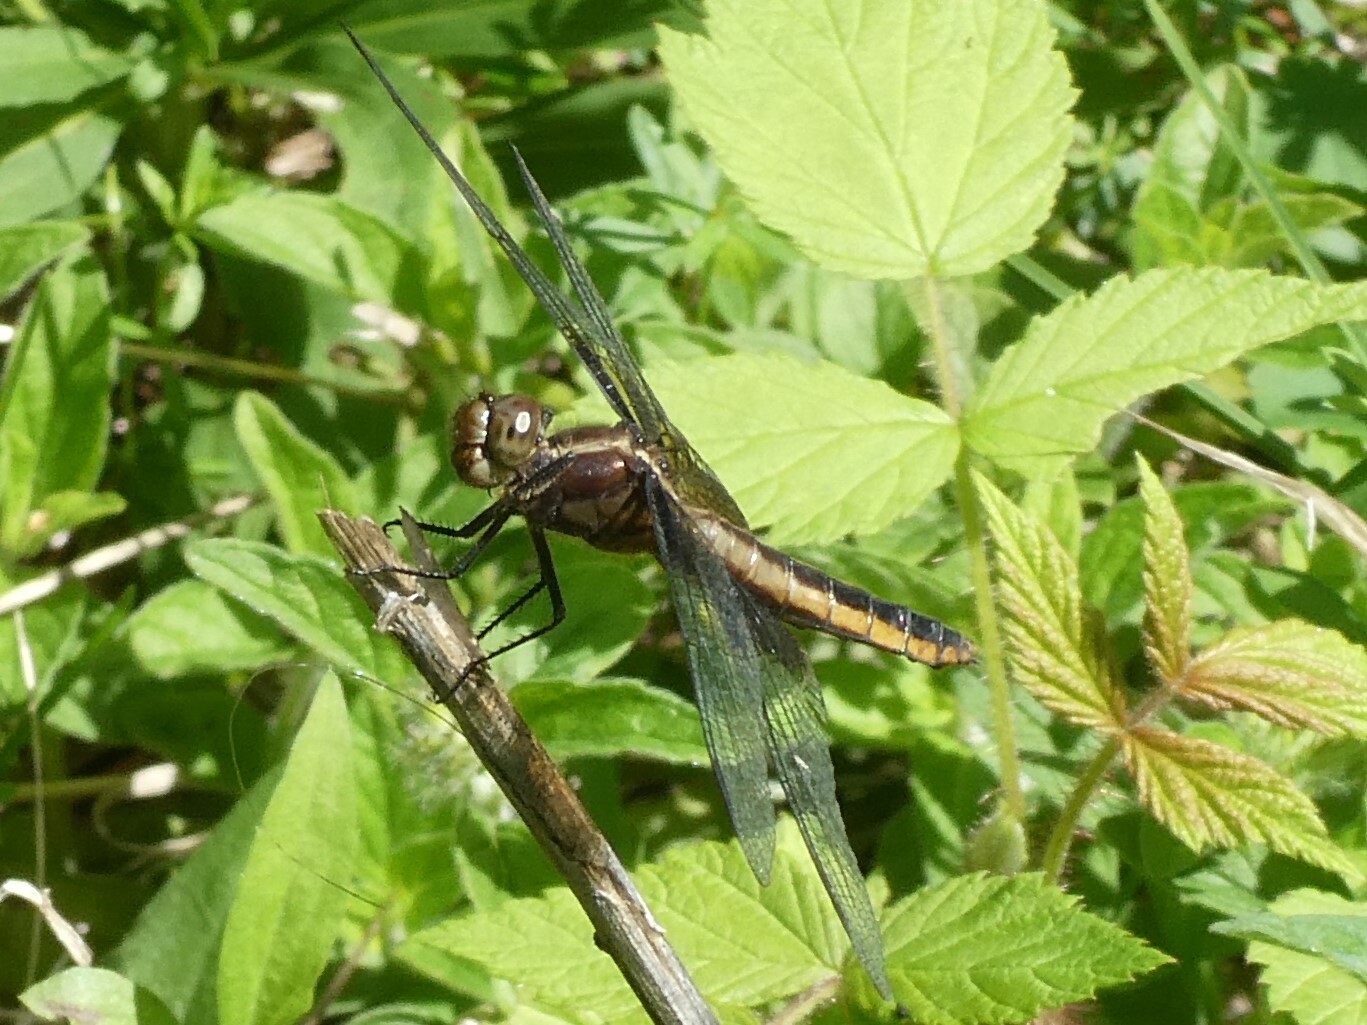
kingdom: Animalia
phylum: Arthropoda
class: Insecta
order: Odonata
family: Libellulidae
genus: Libellula
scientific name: Libellula luctuosa
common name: Widow skimmer
